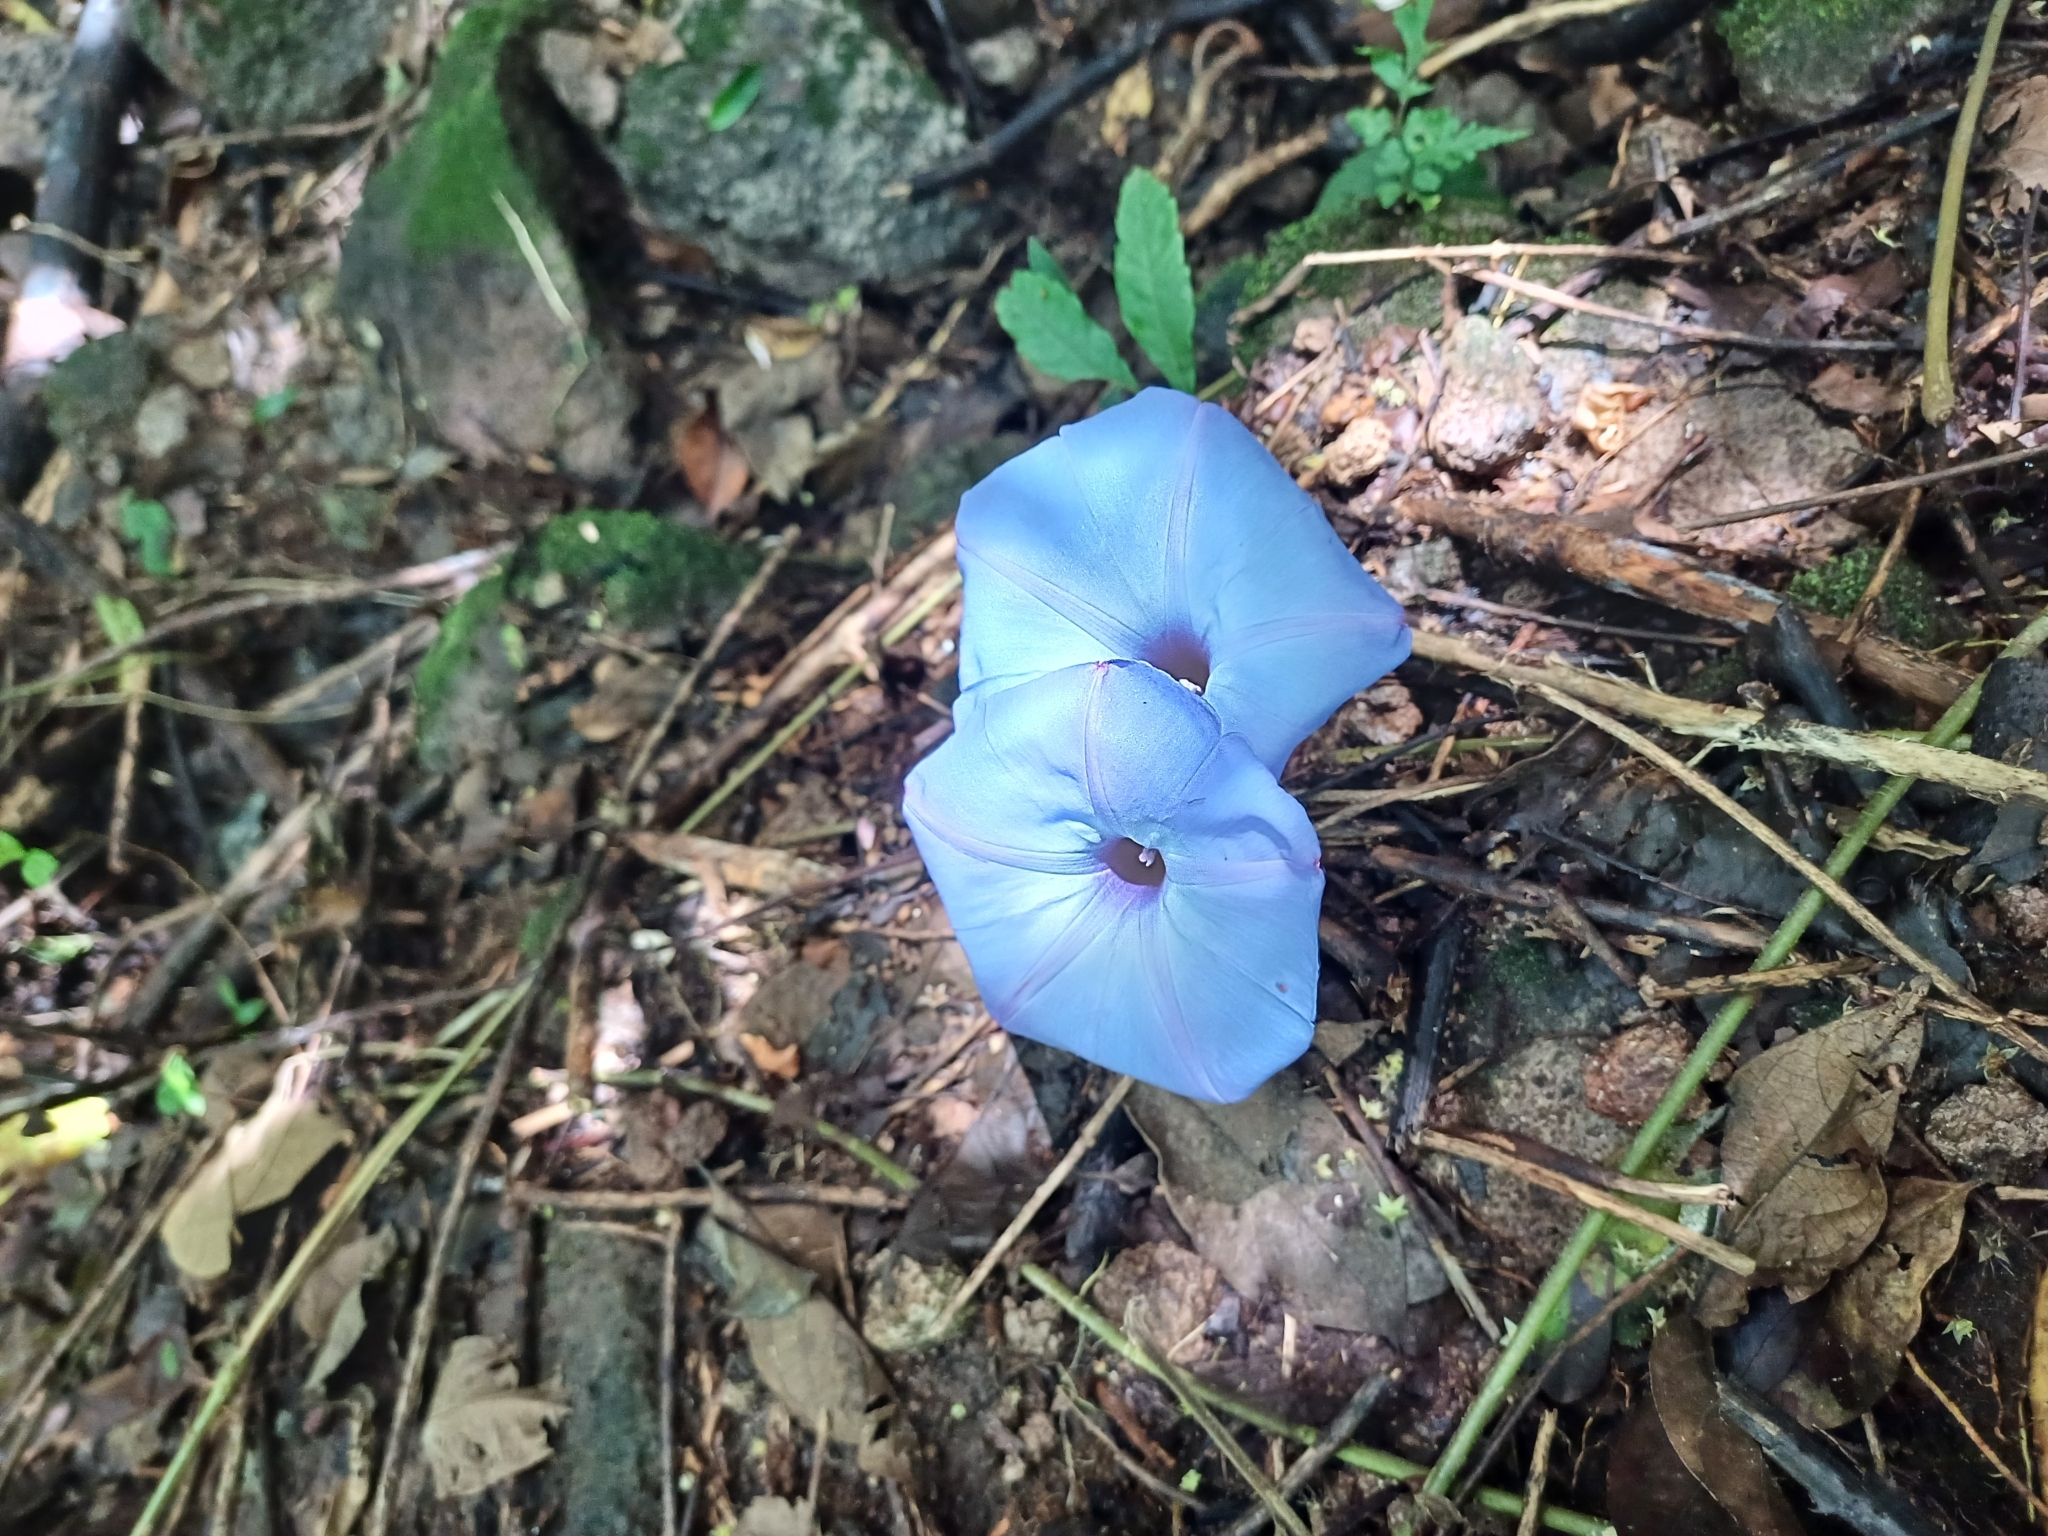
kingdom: Plantae
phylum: Tracheophyta
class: Magnoliopsida
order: Solanales
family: Convolvulaceae
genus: Ipomoea
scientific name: Ipomoea regnellii
